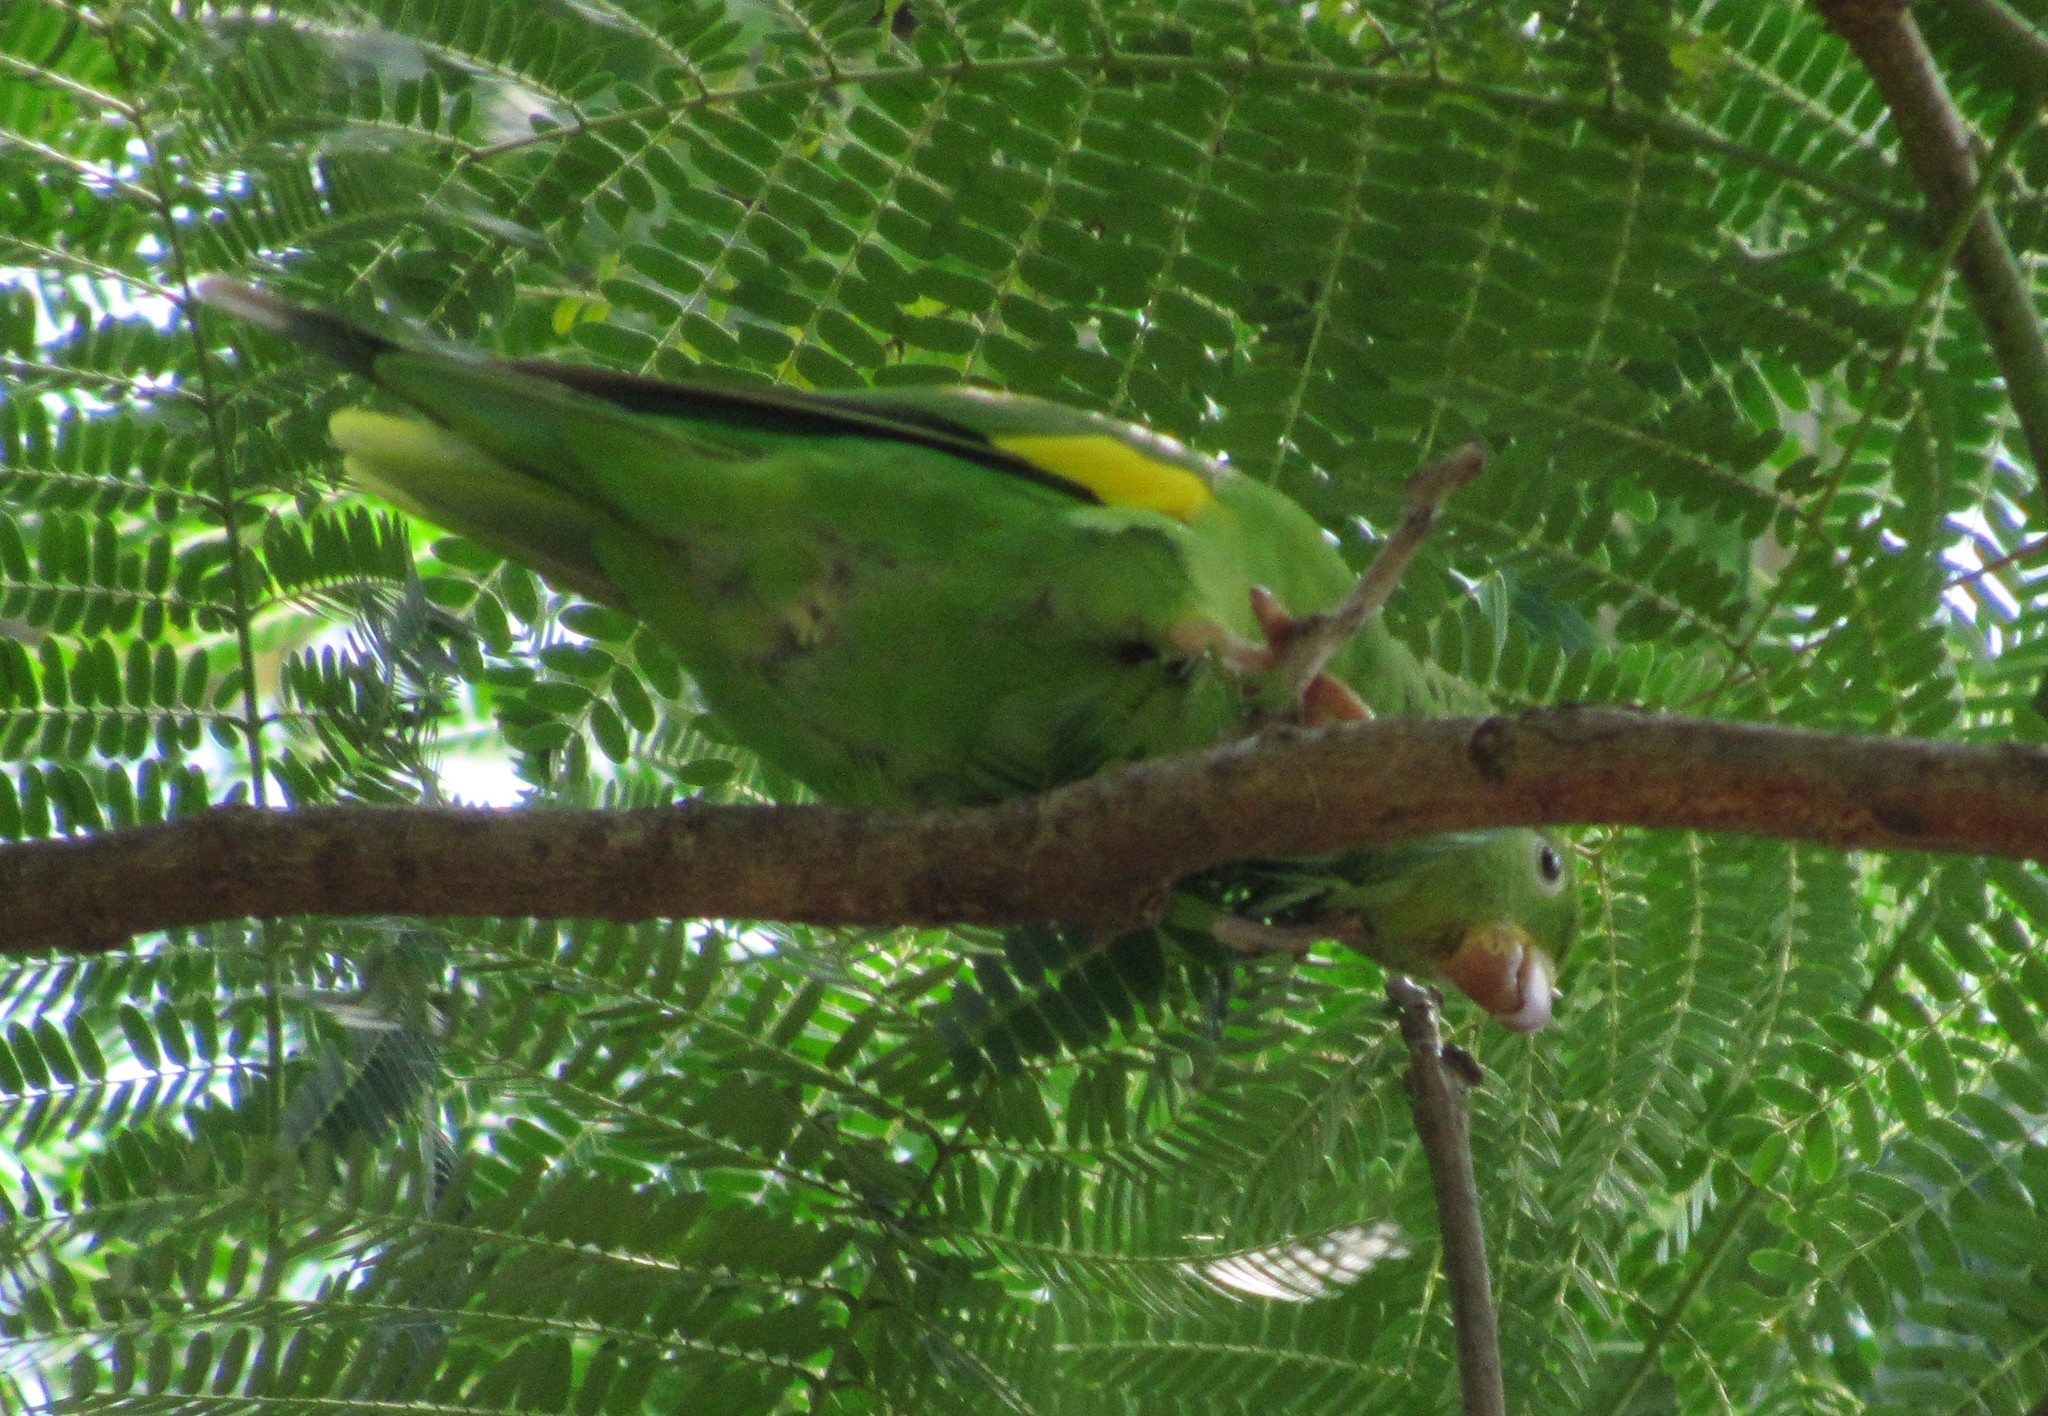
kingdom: Animalia
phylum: Chordata
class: Aves
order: Psittaciformes
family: Psittacidae
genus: Brotogeris
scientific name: Brotogeris chiriri
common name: Yellow-chevroned parakeet
